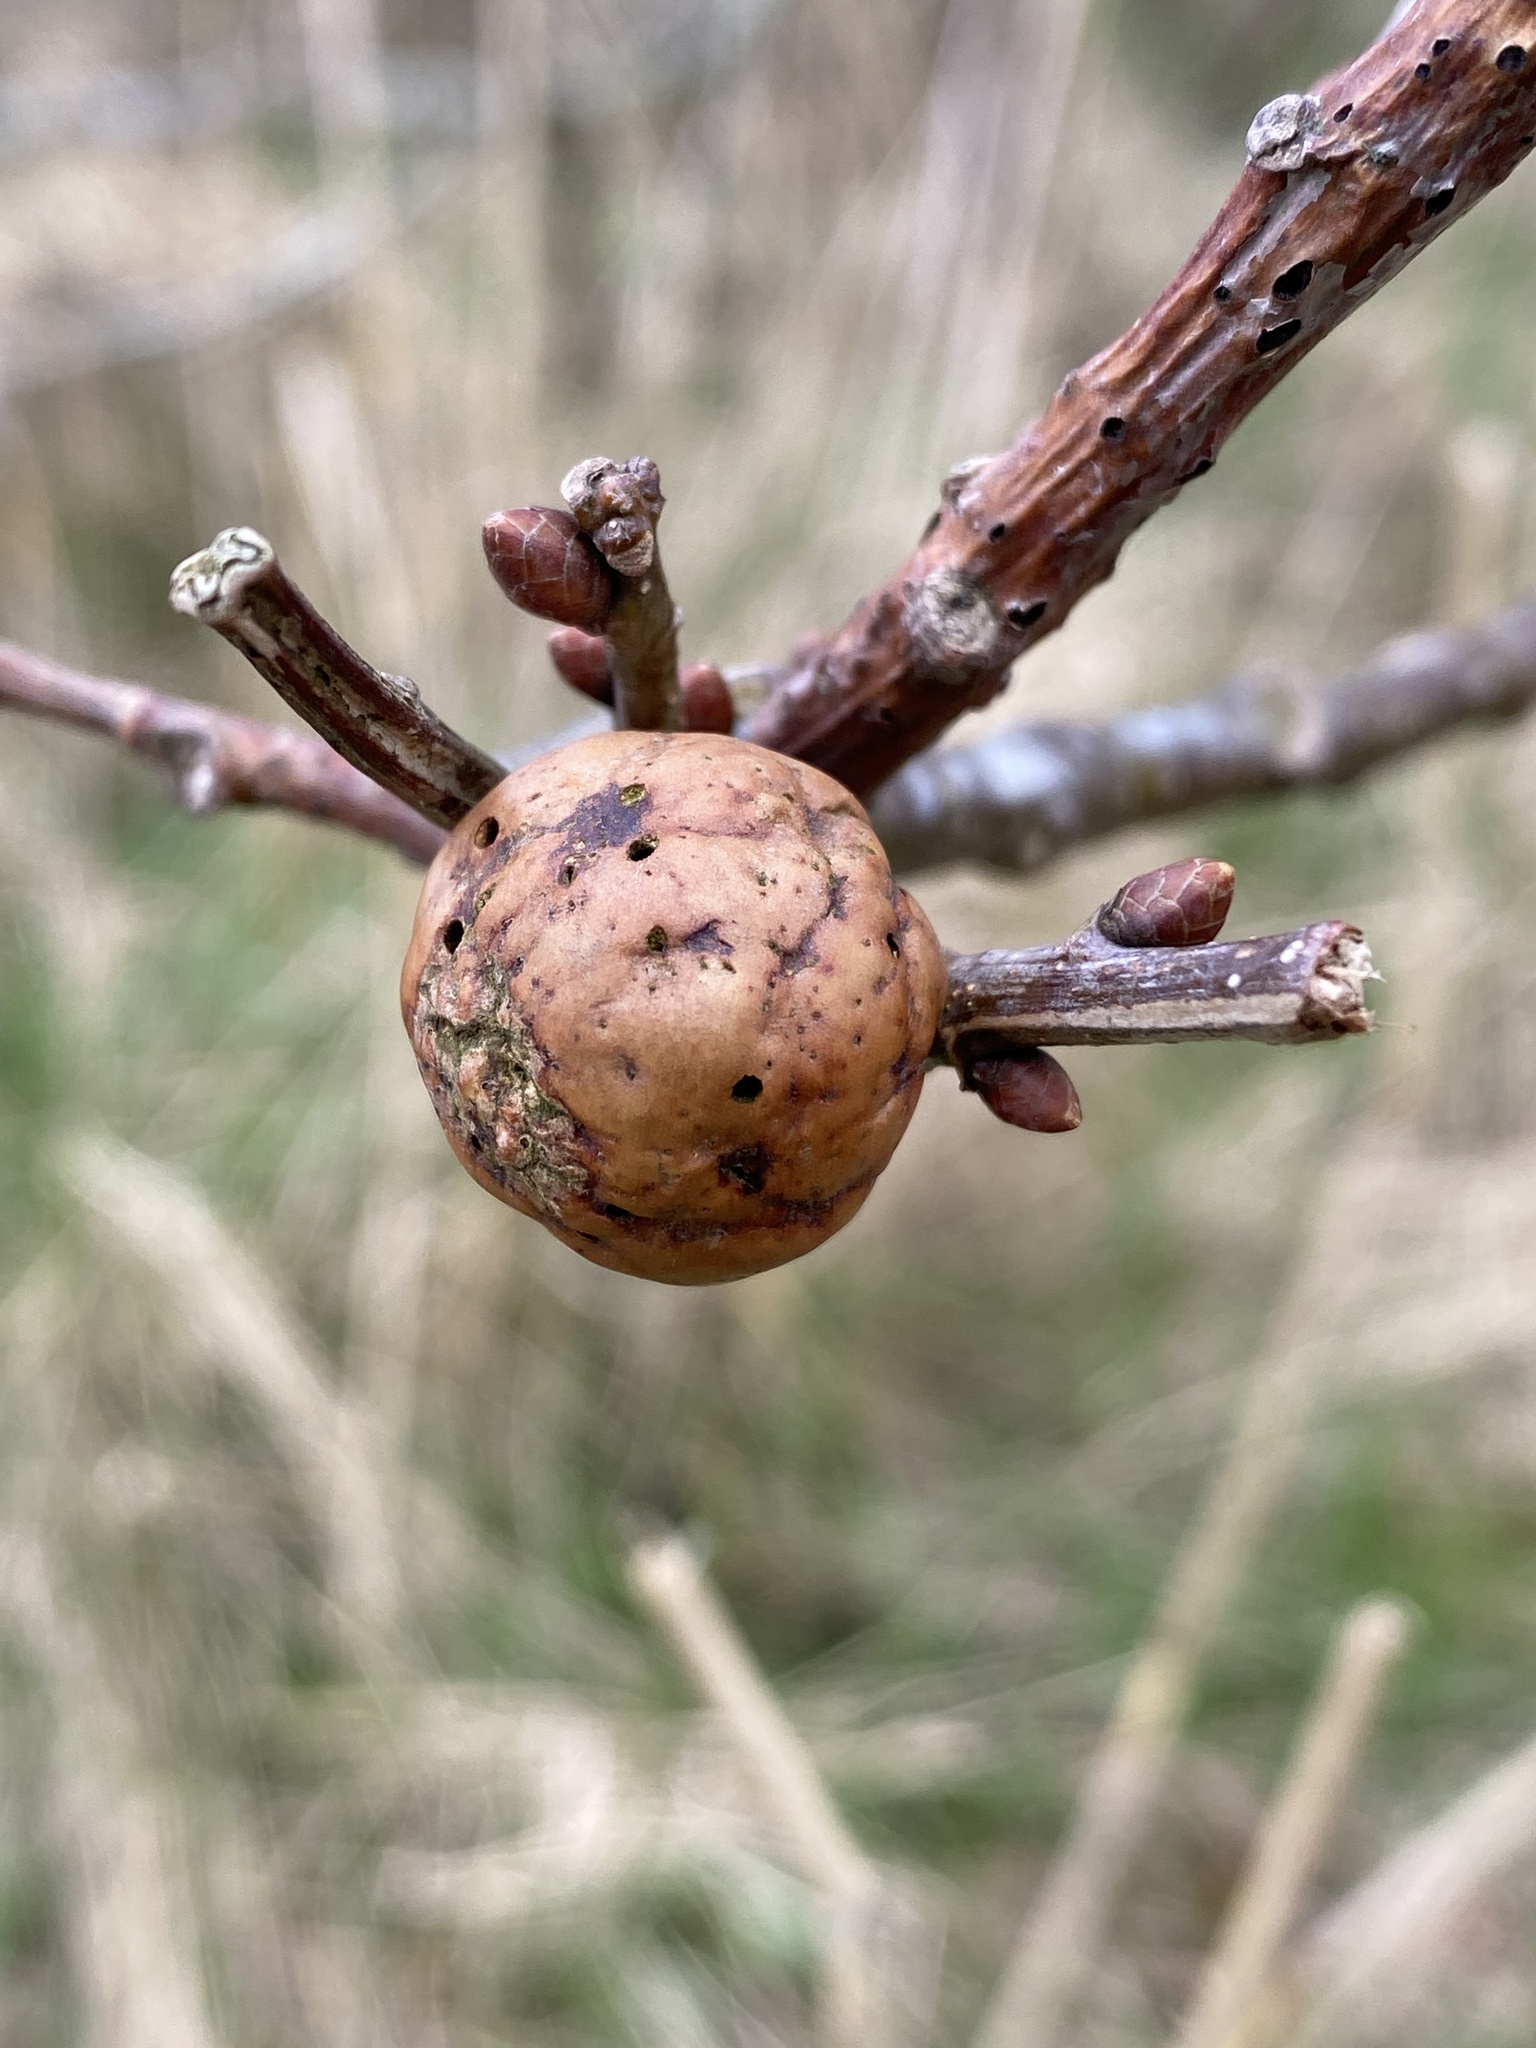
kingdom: Animalia
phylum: Arthropoda
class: Insecta
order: Hymenoptera
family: Cynipidae
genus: Andricus
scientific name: Andricus kollari
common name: Marble gall
